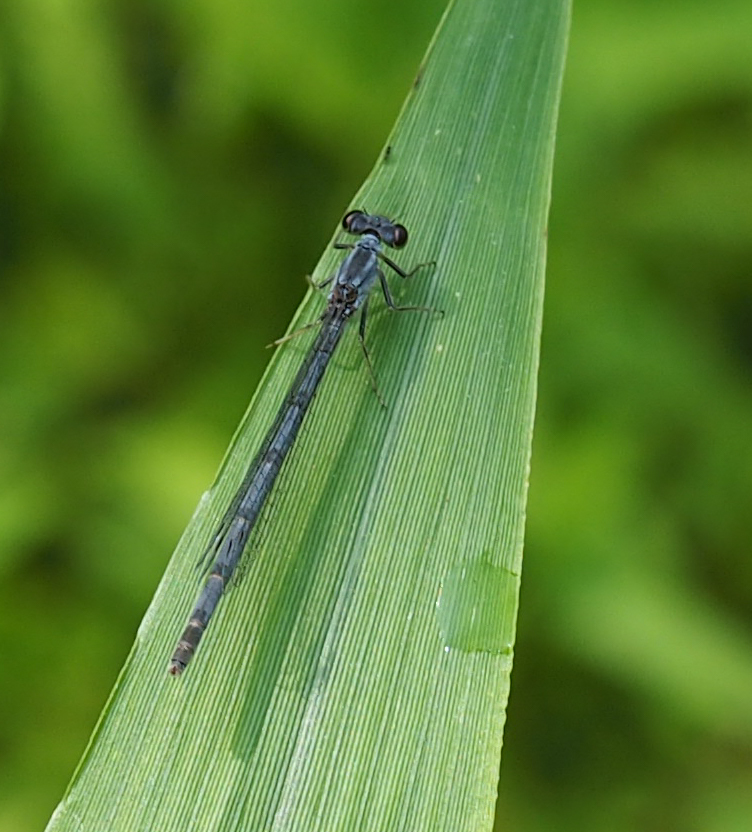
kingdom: Animalia
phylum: Arthropoda
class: Insecta
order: Odonata
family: Coenagrionidae
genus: Ischnura
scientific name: Ischnura posita
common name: Fragile forktail
